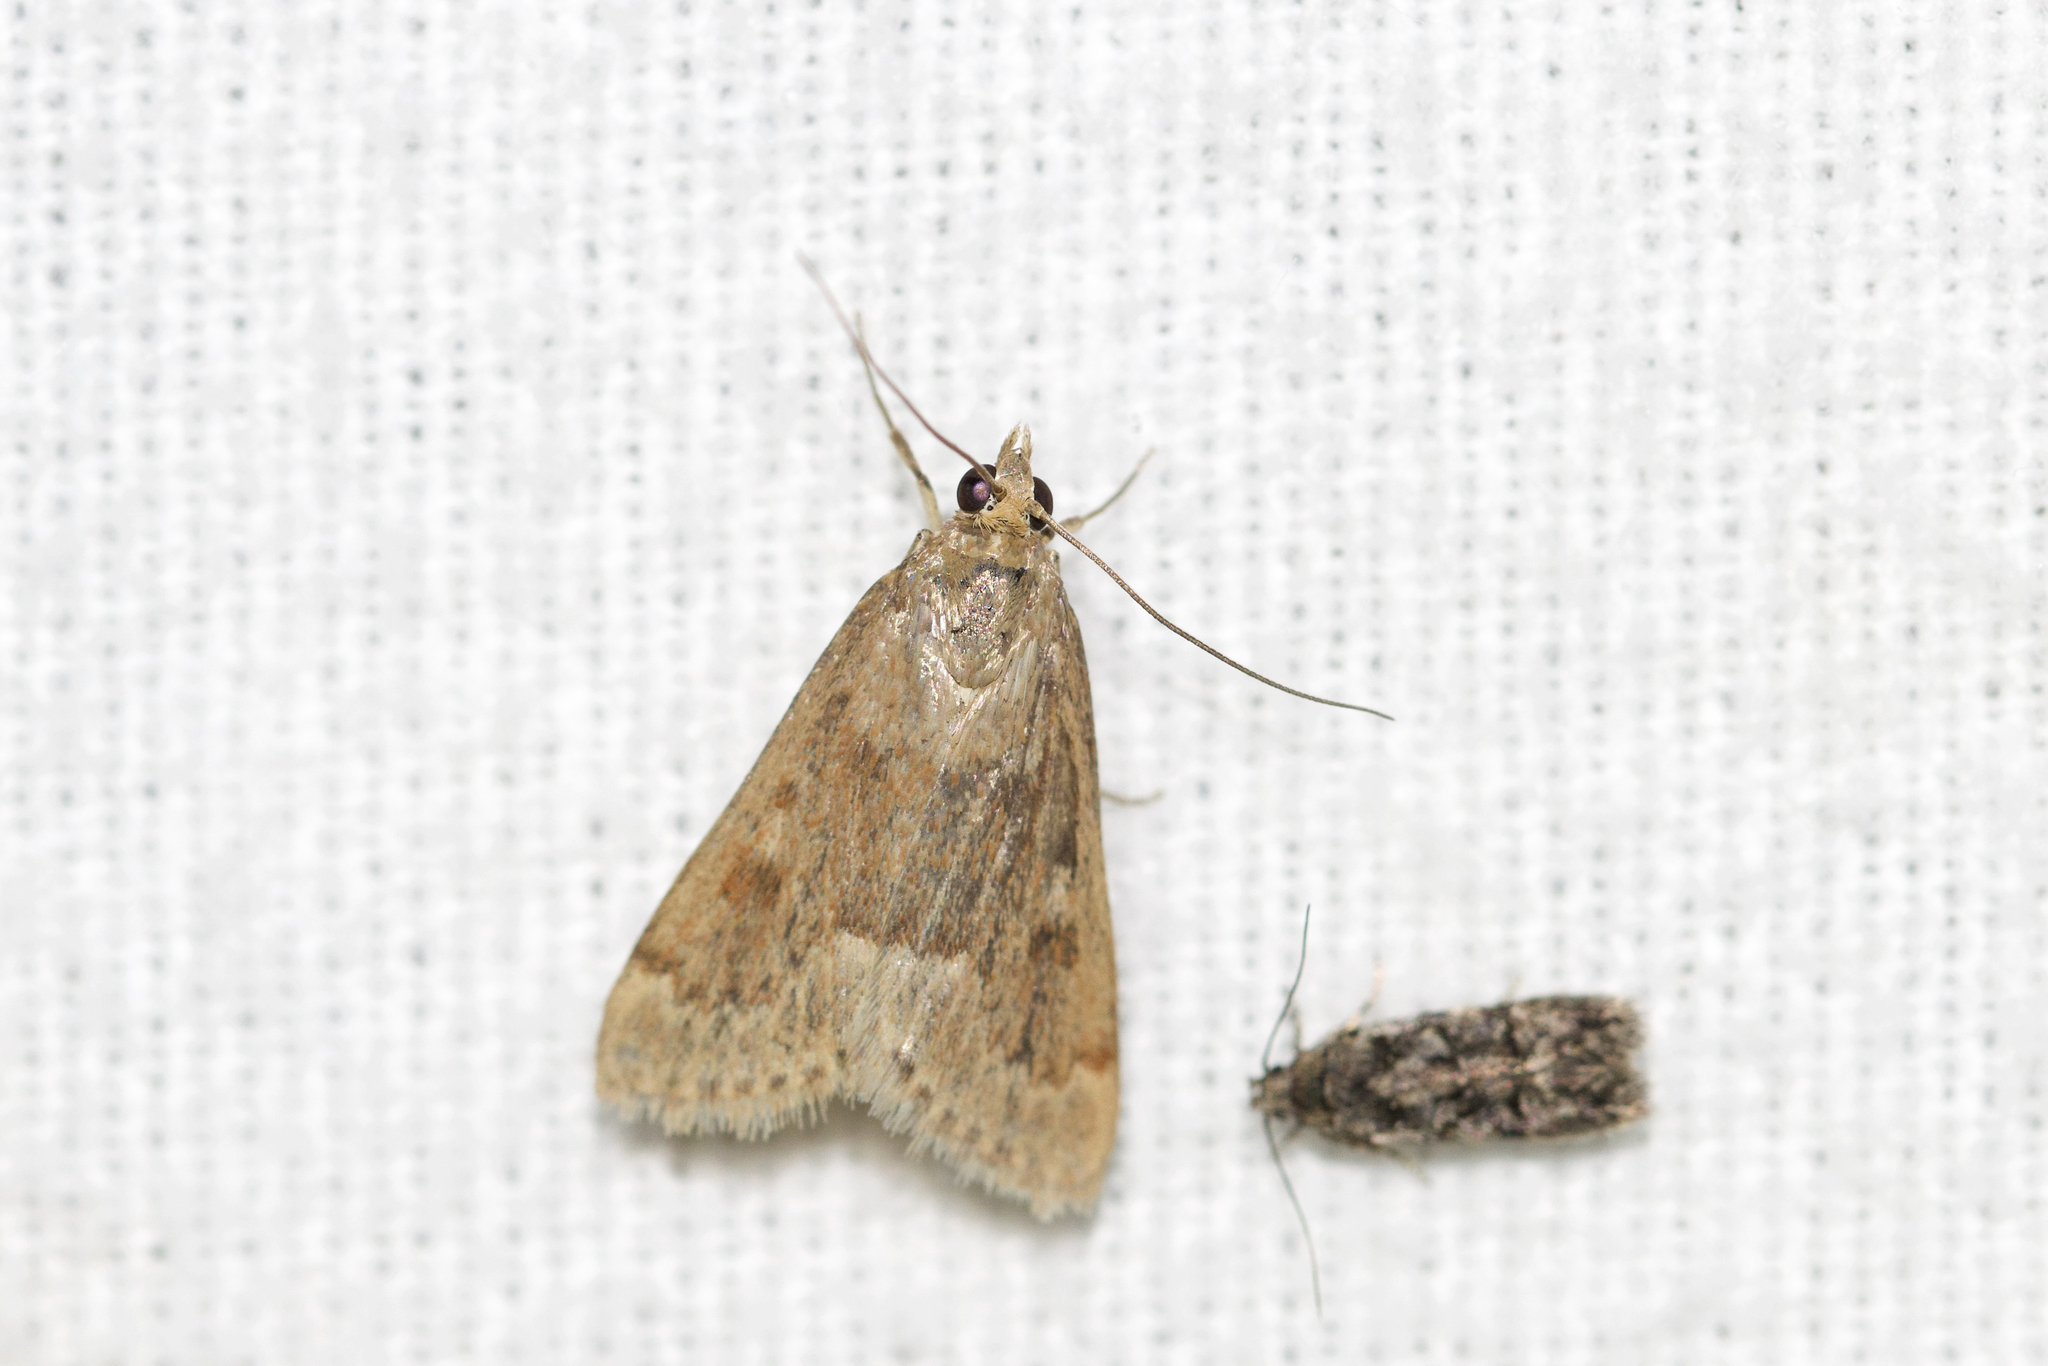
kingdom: Animalia
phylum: Arthropoda
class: Insecta
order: Lepidoptera
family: Crambidae
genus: Achyra
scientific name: Achyra rantalis
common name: Garden webworm
